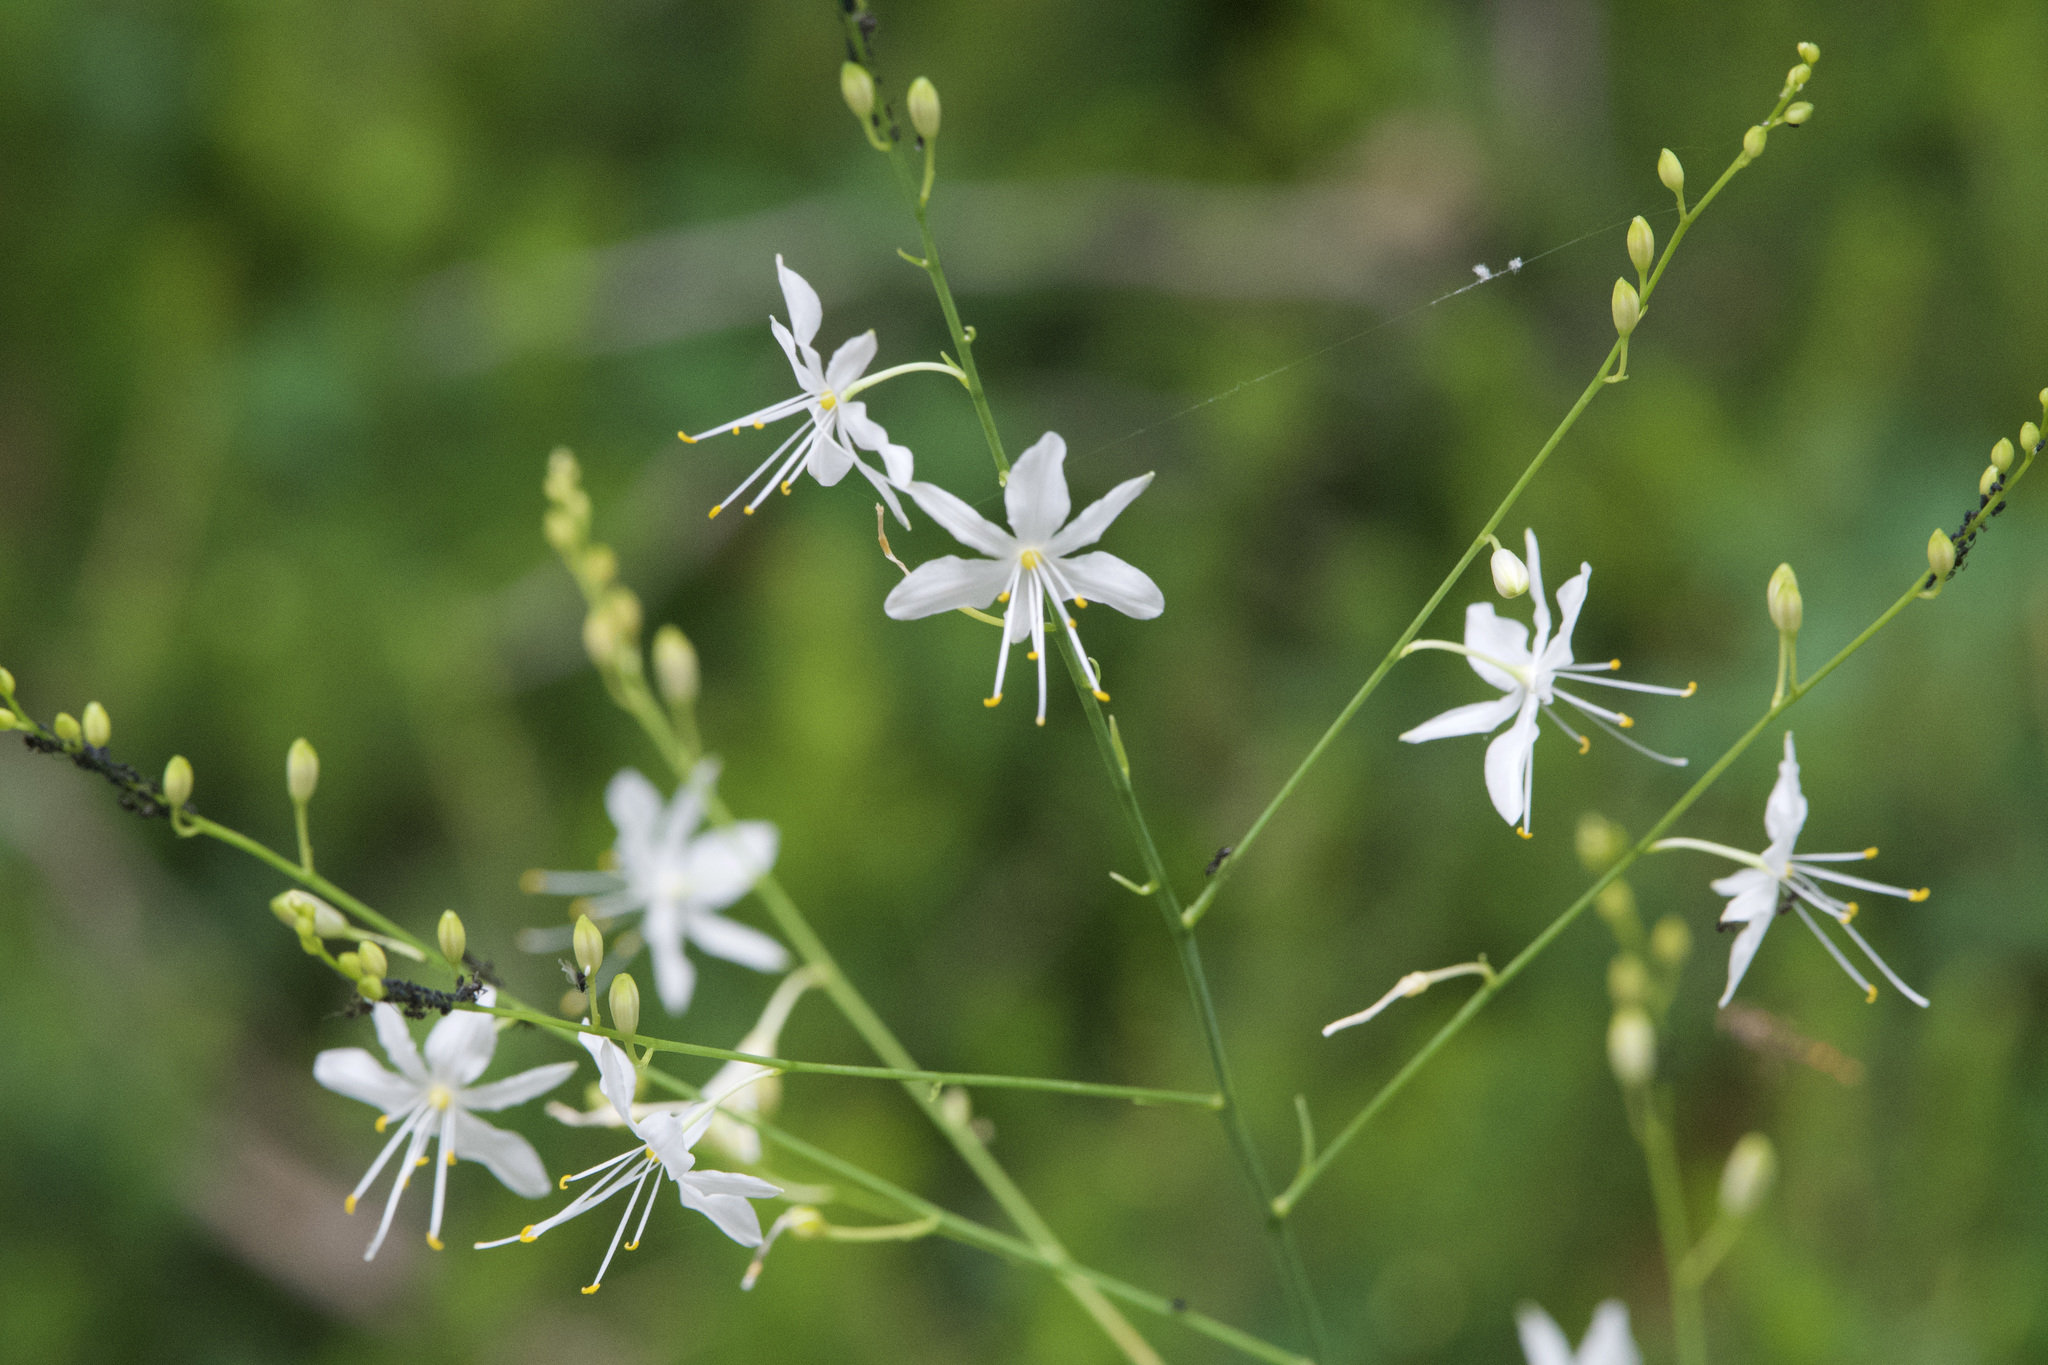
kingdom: Plantae
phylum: Tracheophyta
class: Liliopsida
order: Asparagales
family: Asparagaceae
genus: Anthericum
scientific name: Anthericum ramosum
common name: Branched st. bernard's-lily
